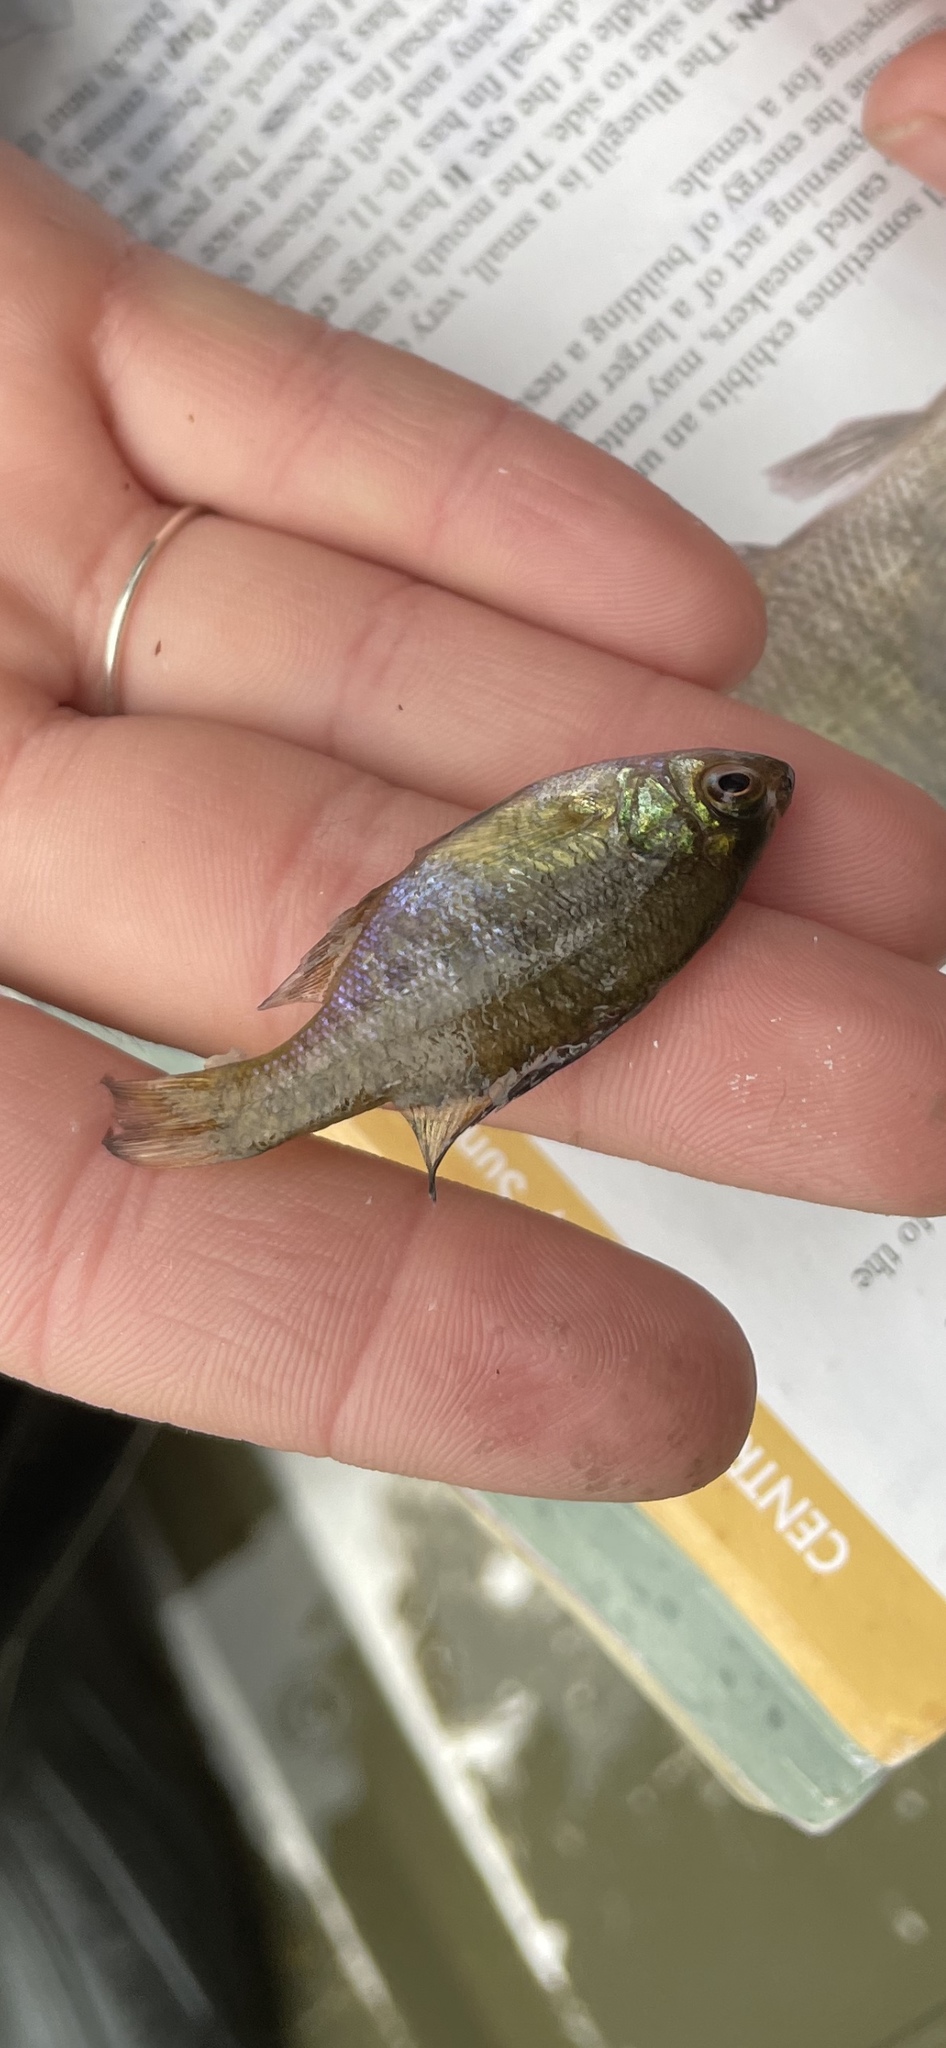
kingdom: Animalia
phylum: Chordata
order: Perciformes
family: Centrarchidae
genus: Lepomis
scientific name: Lepomis macrochirus
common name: Bluegill
